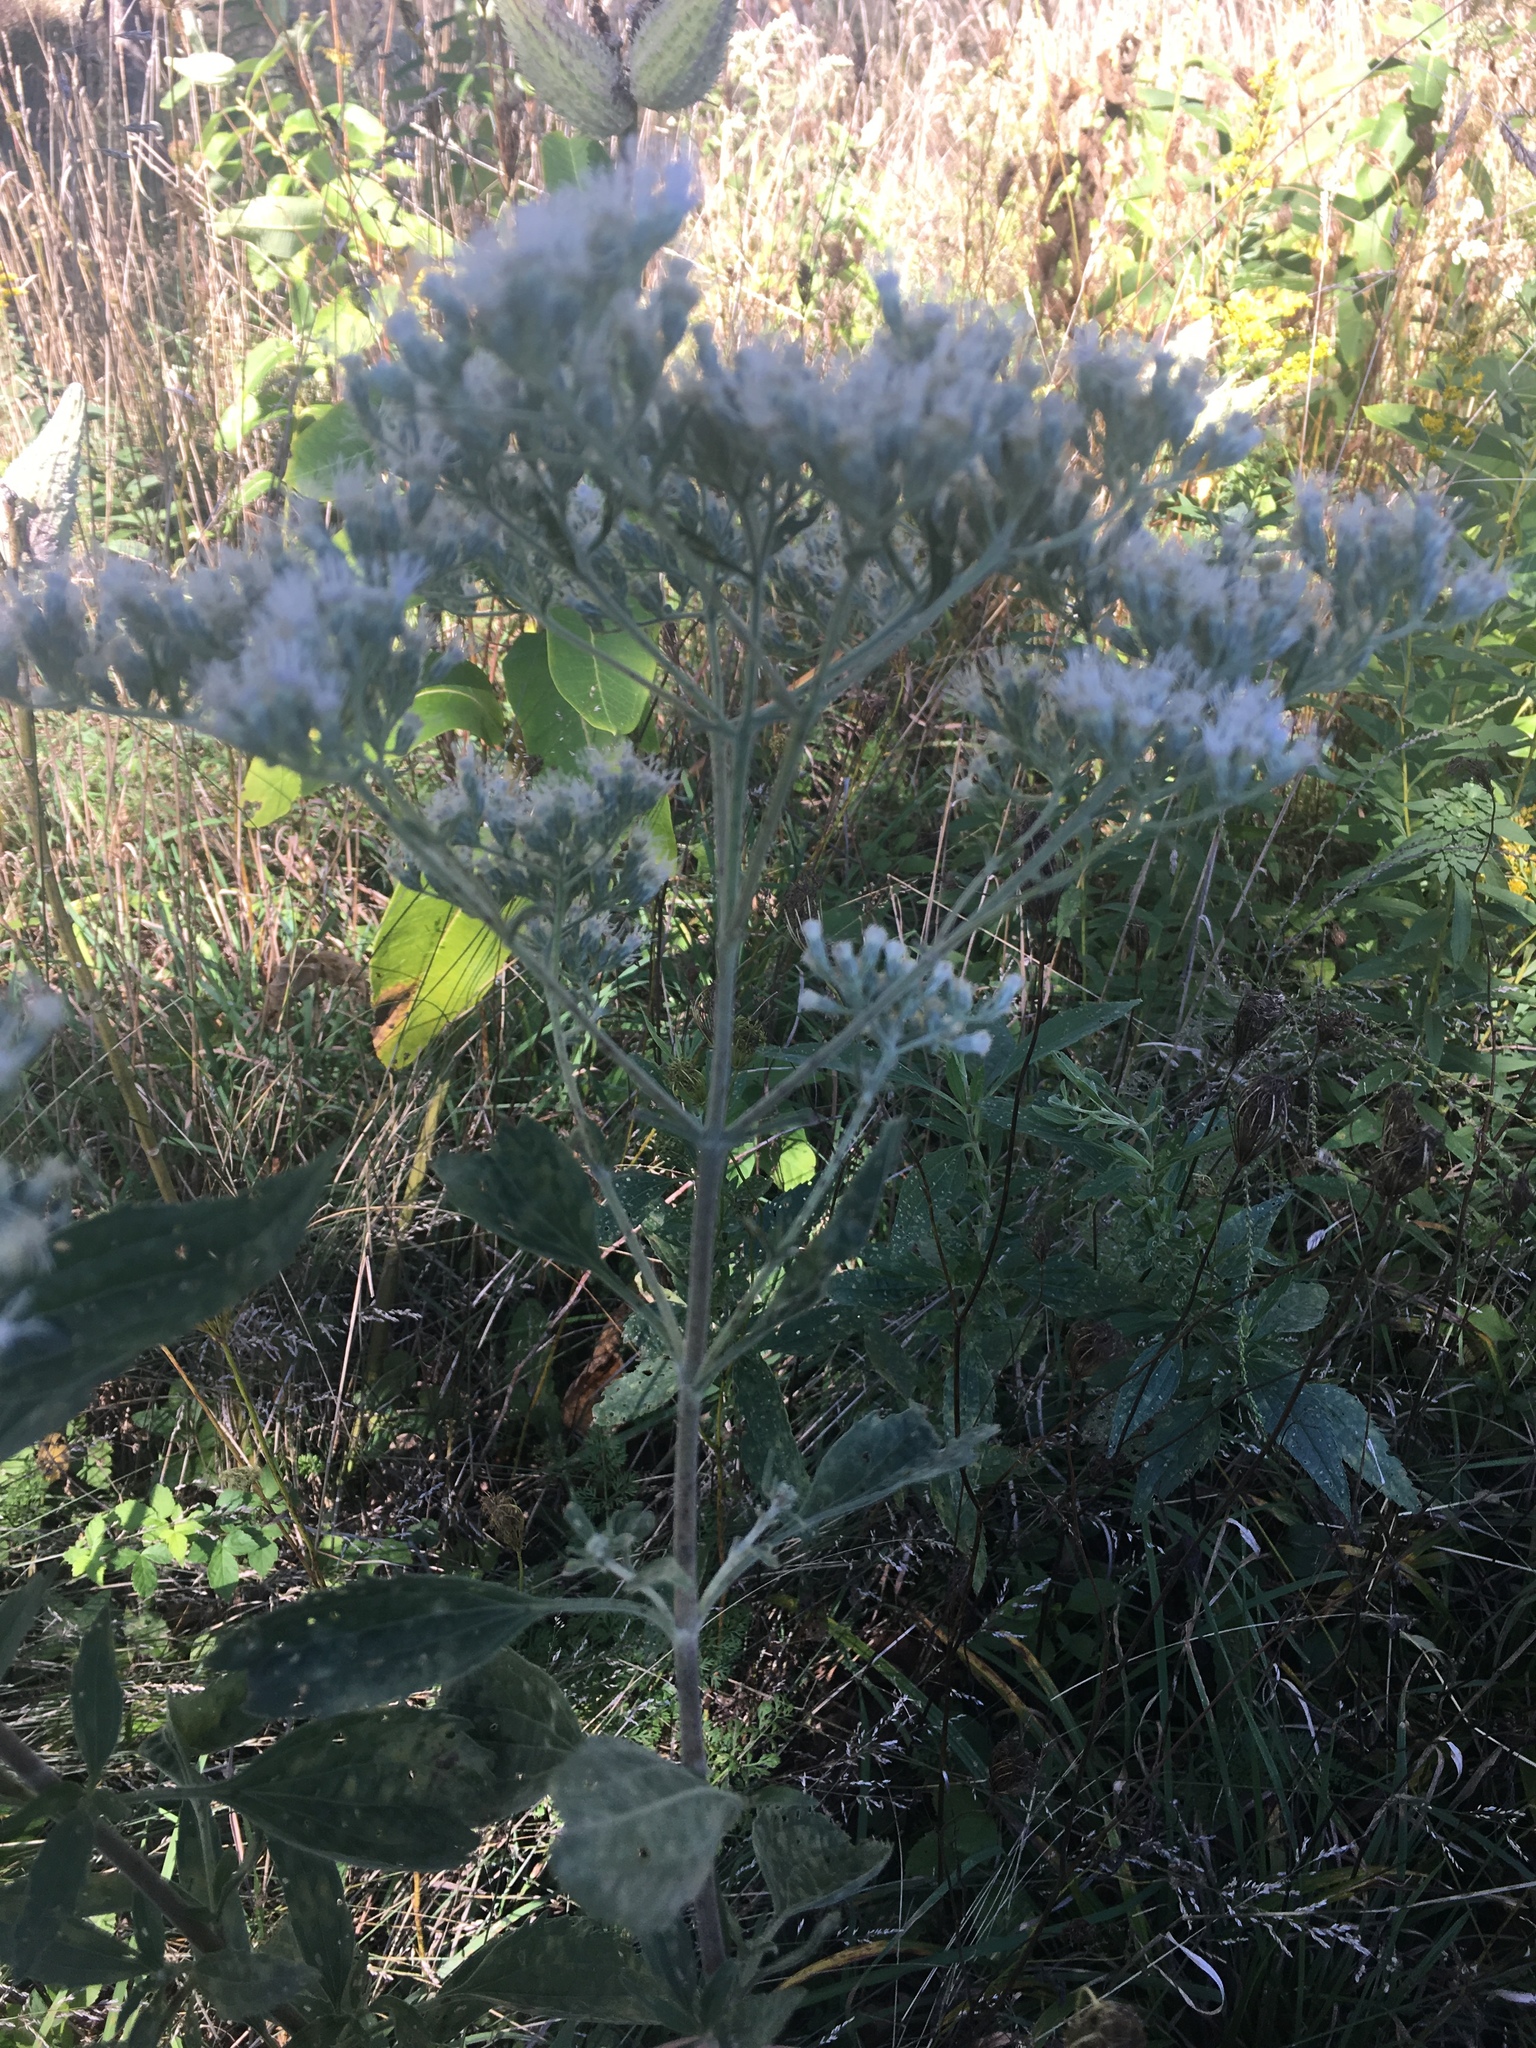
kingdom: Plantae
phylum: Tracheophyta
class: Magnoliopsida
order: Asterales
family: Asteraceae
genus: Eupatorium
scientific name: Eupatorium serotinum
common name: Late boneset
